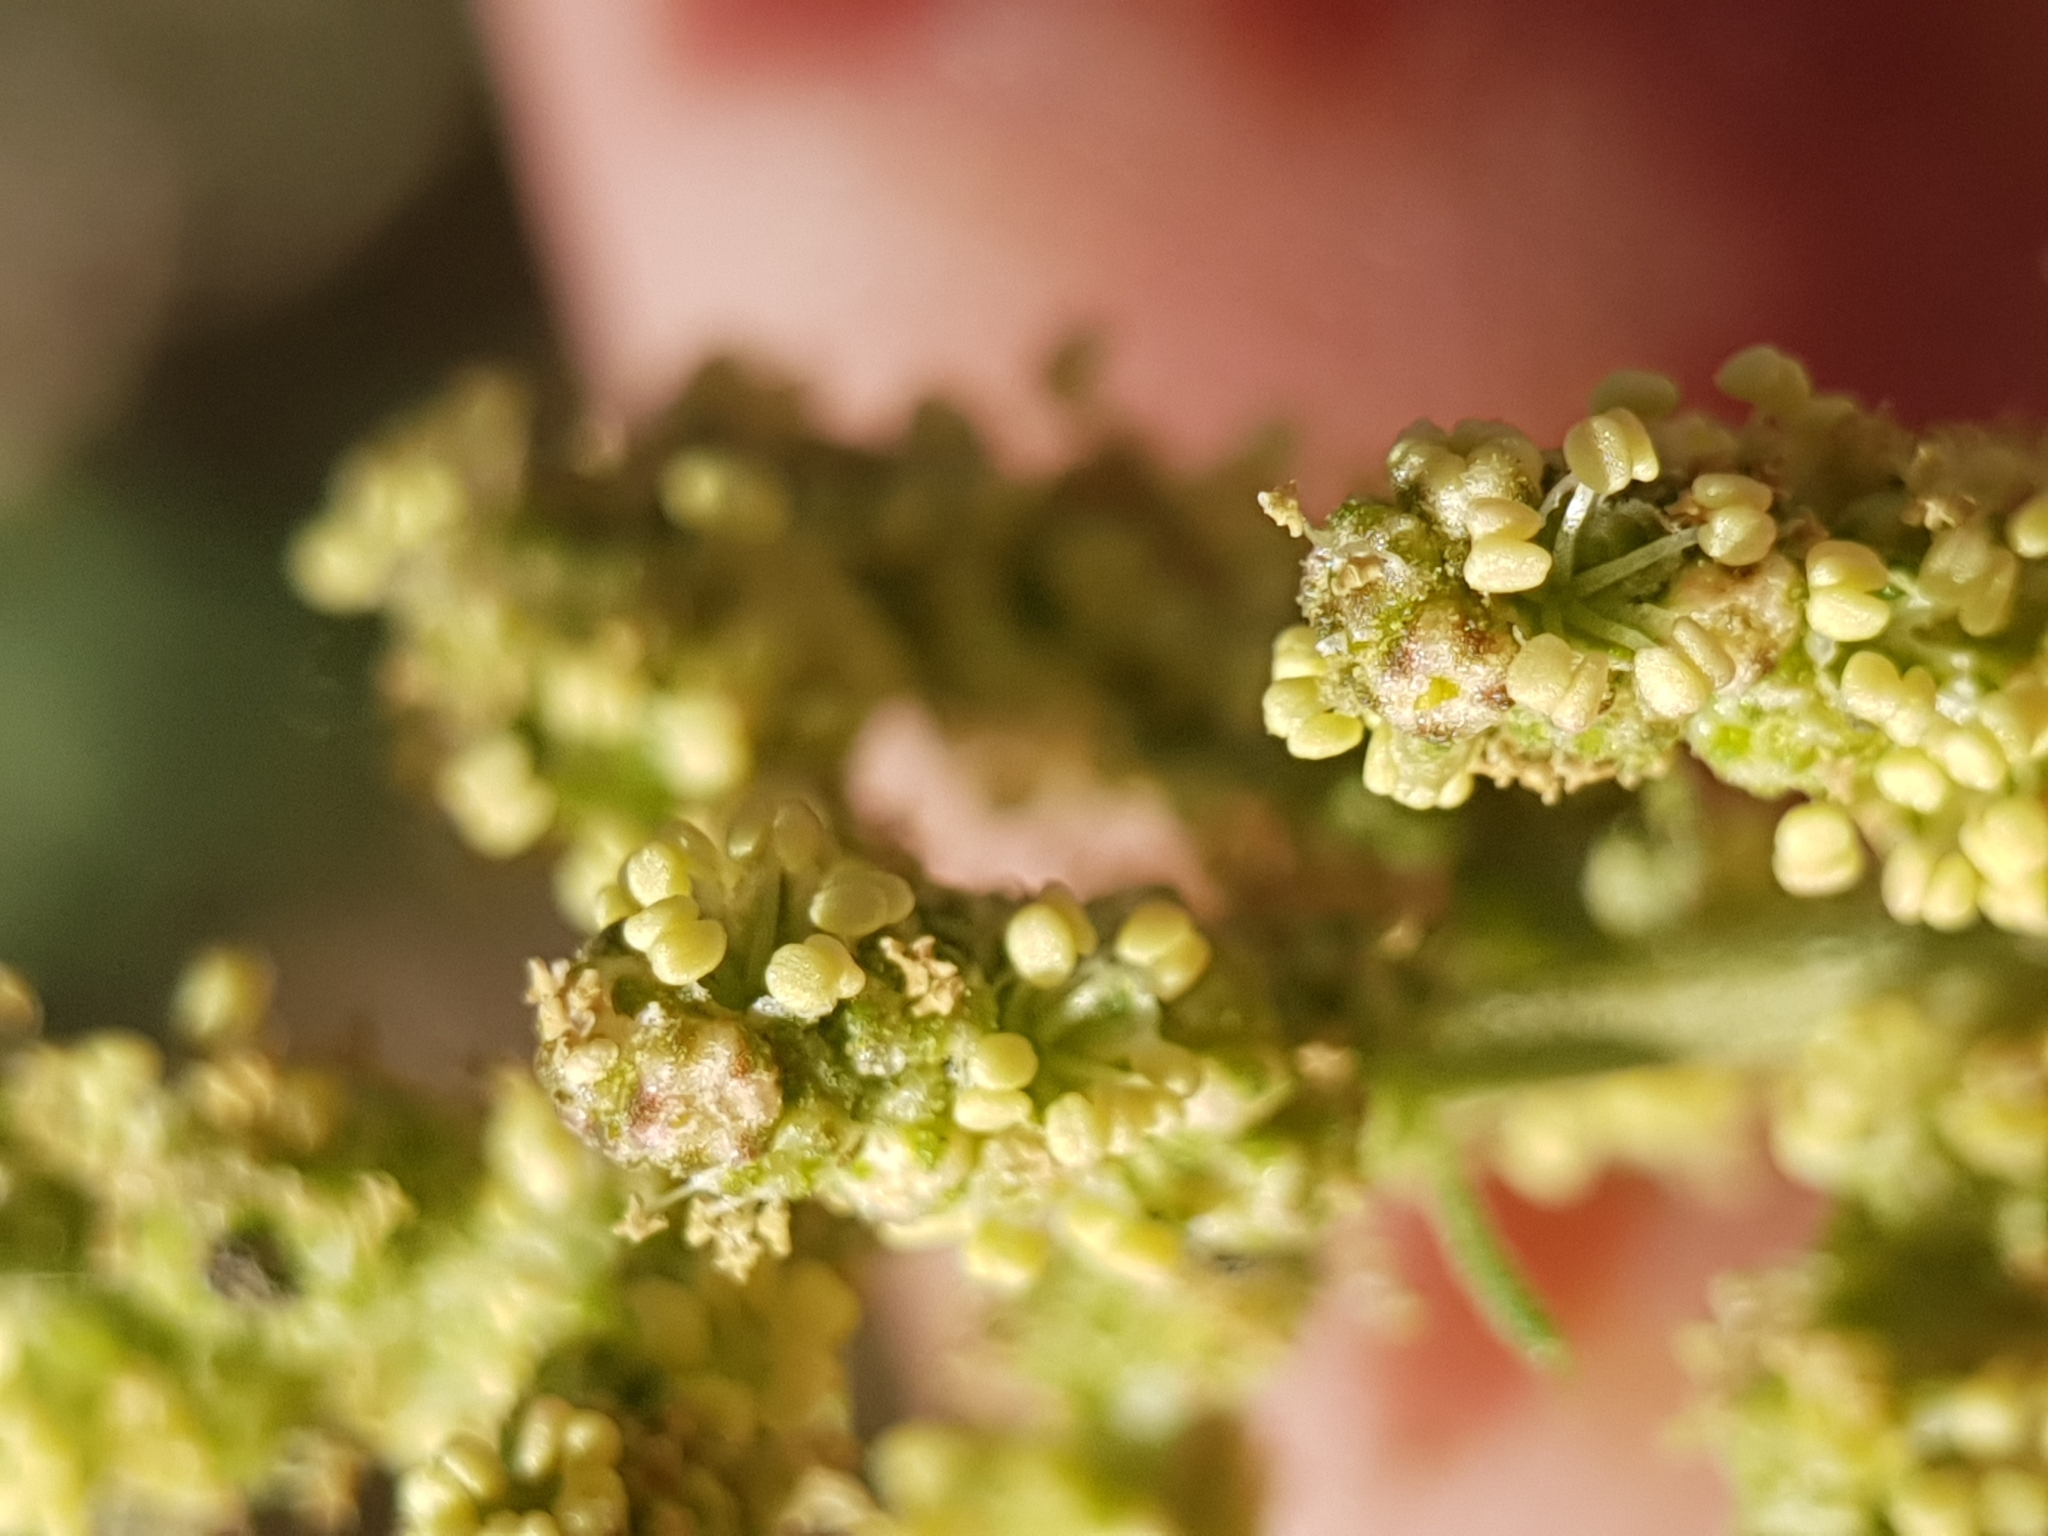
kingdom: Plantae
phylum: Tracheophyta
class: Magnoliopsida
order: Caryophyllales
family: Amaranthaceae
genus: Atriplex
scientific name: Atriplex patula
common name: Common orache
